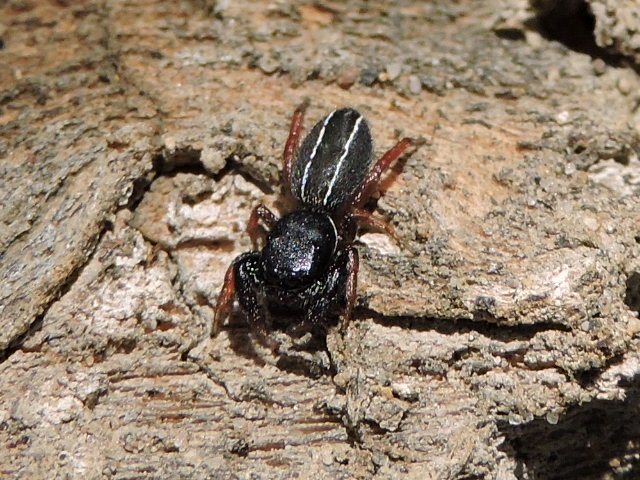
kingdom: Animalia
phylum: Arthropoda
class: Arachnida
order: Araneae
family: Salticidae
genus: Metacyrba
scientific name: Metacyrba taeniola
